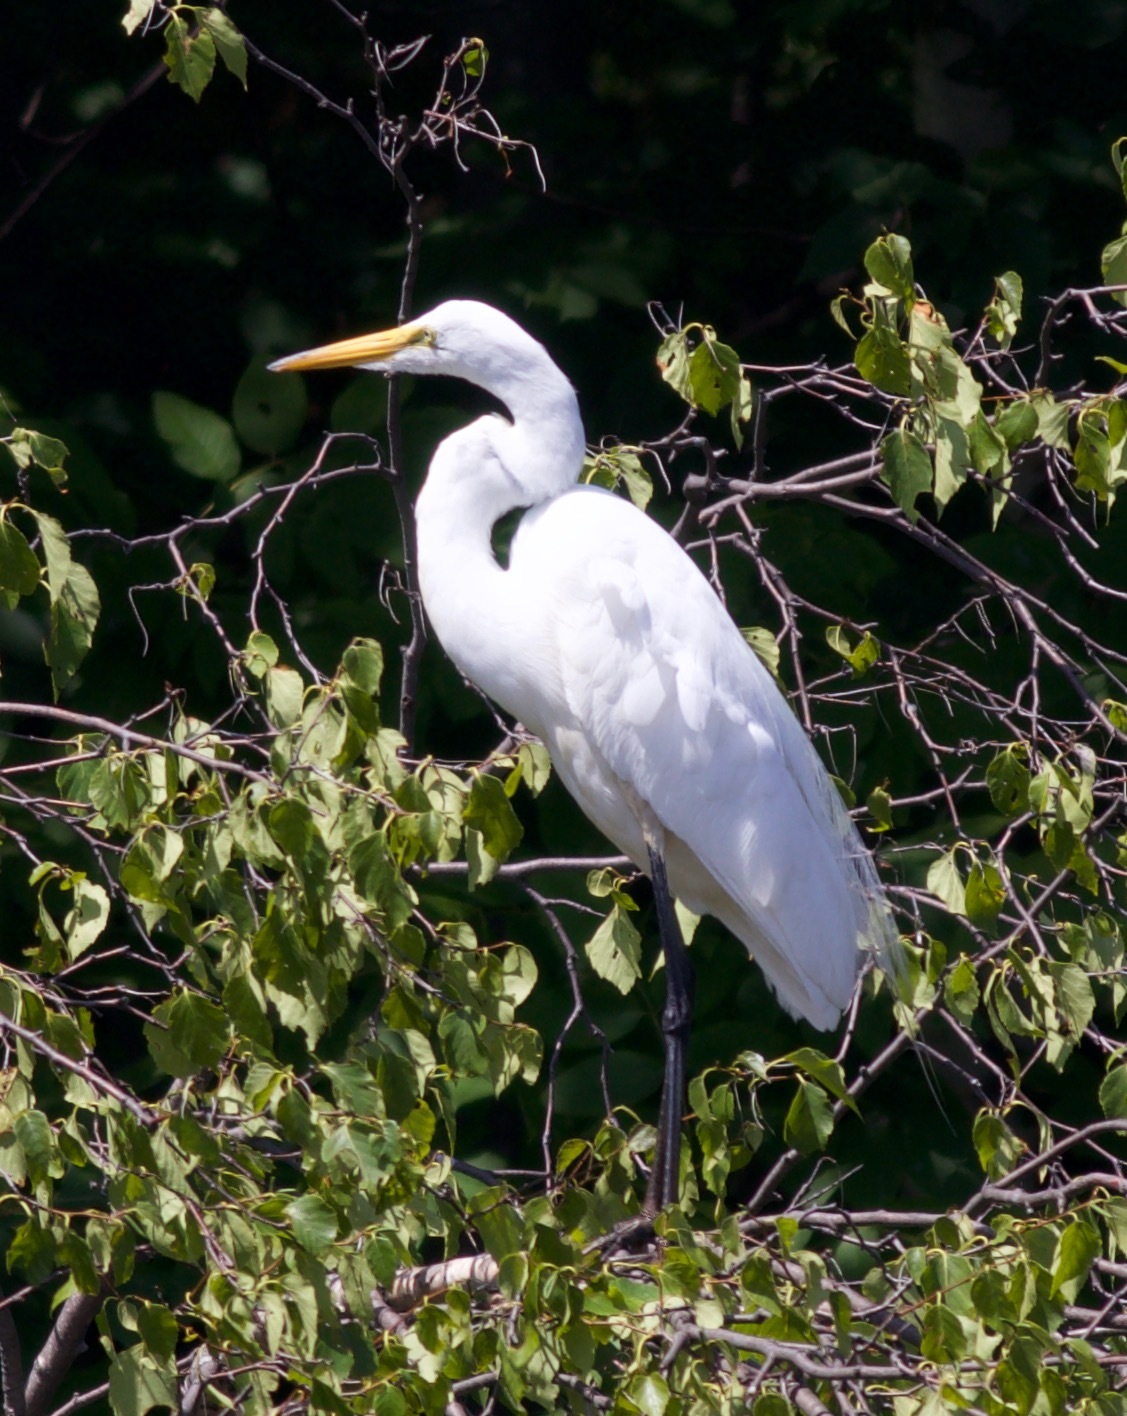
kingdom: Animalia
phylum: Chordata
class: Aves
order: Pelecaniformes
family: Ardeidae
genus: Ardea
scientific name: Ardea alba
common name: Great egret
